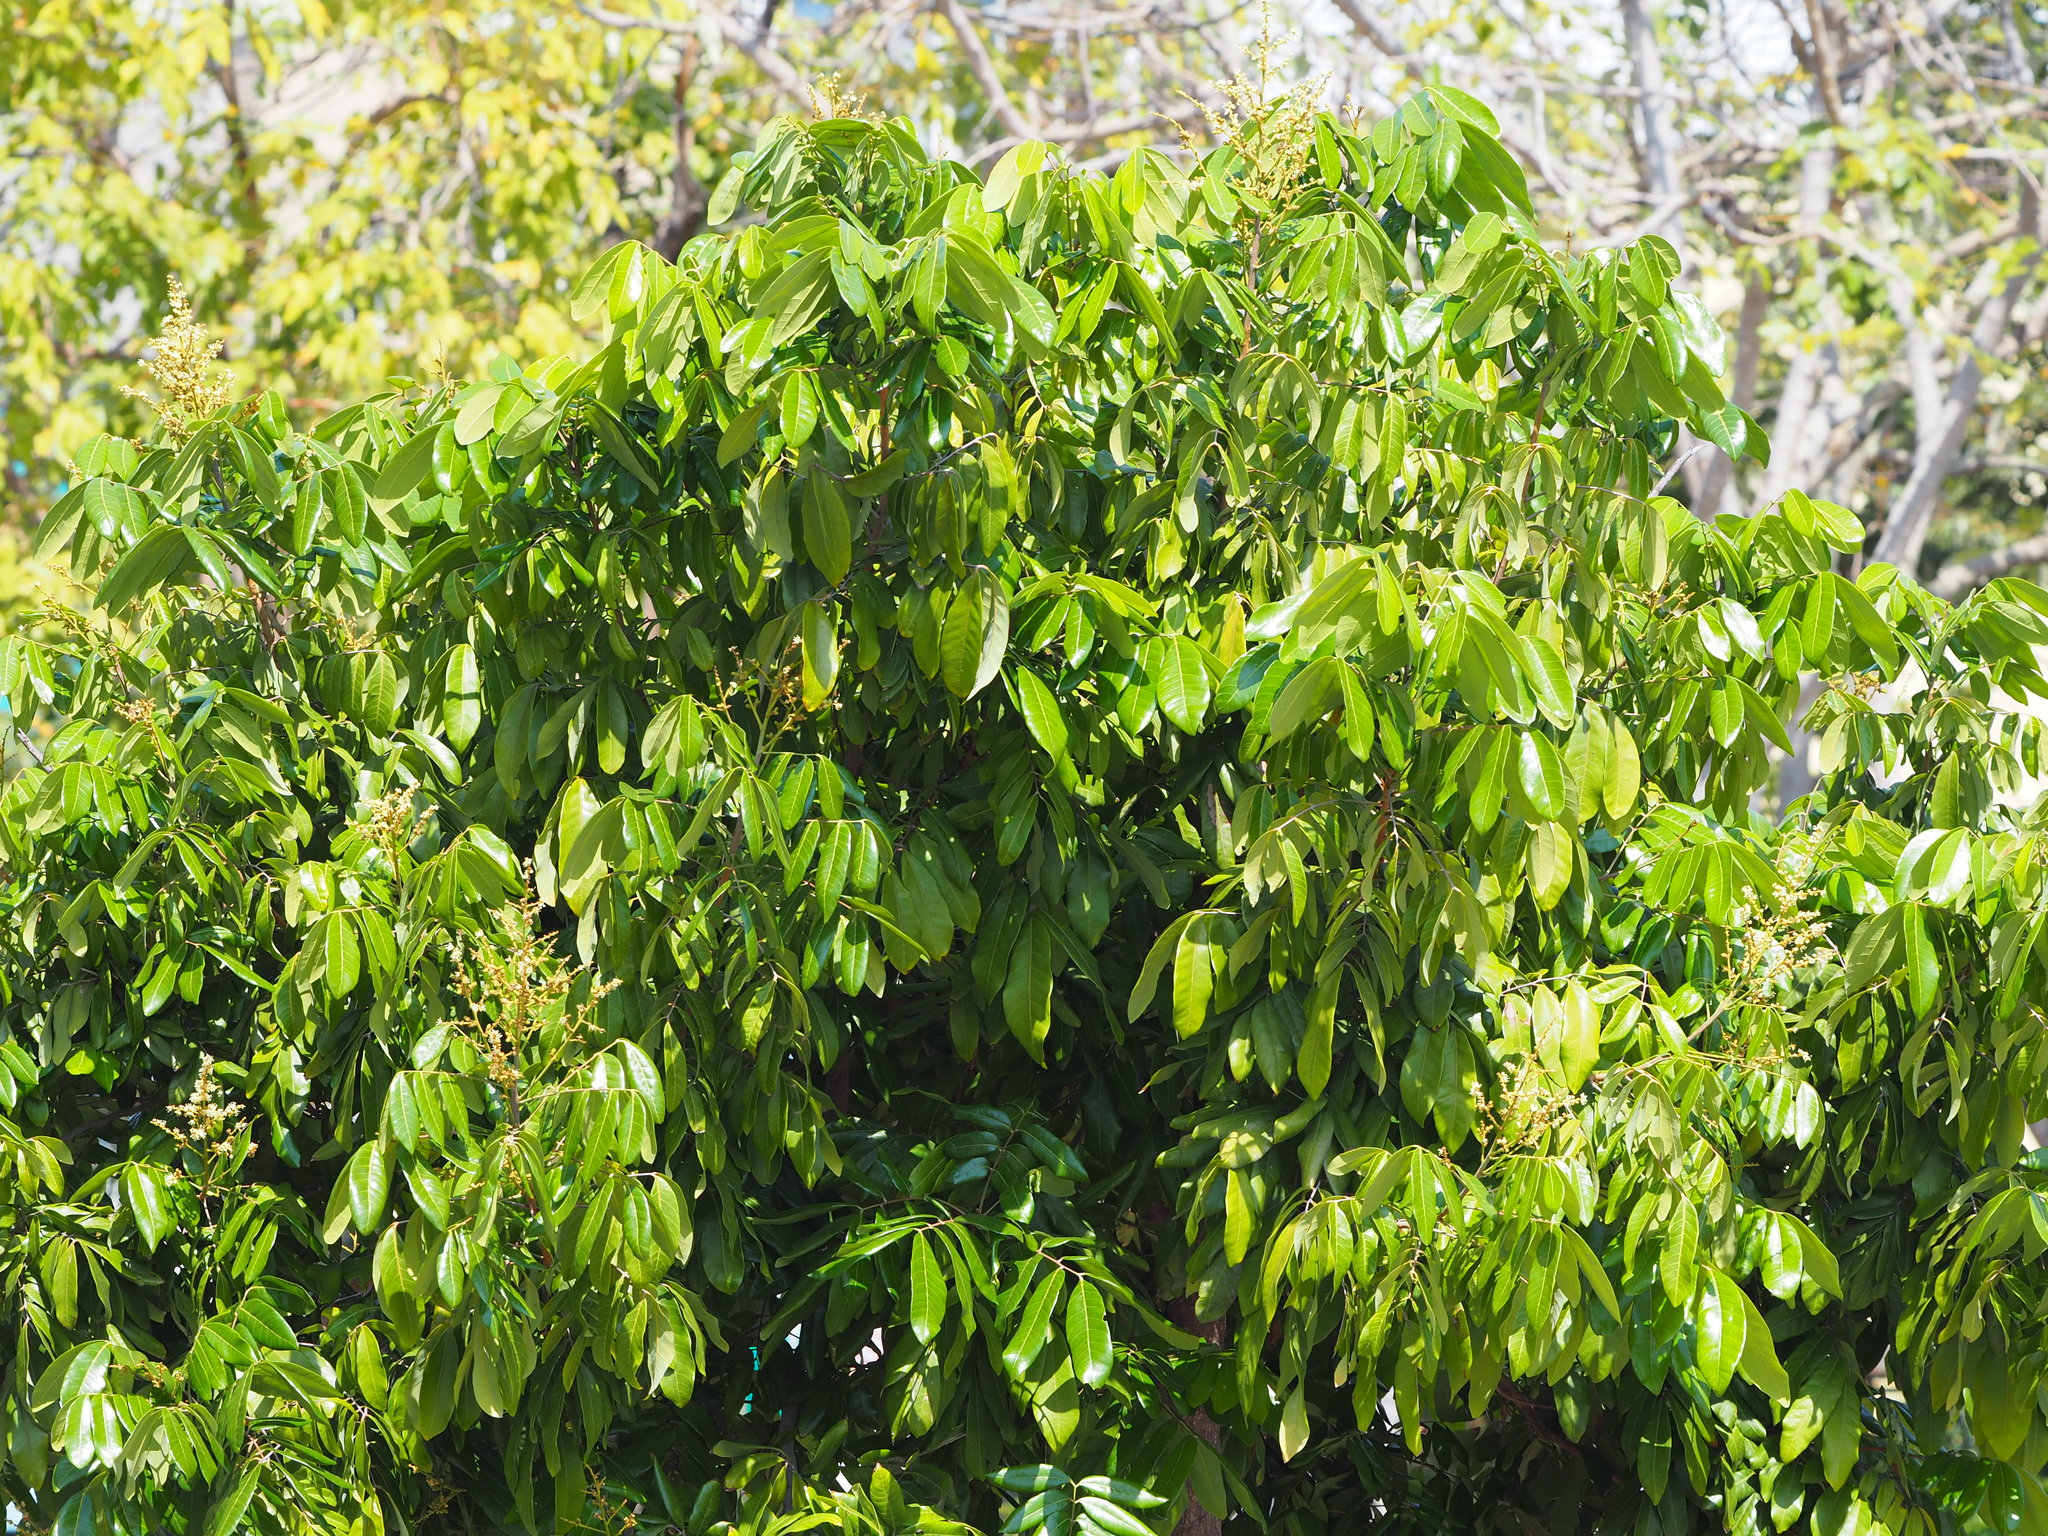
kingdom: Plantae
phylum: Tracheophyta
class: Magnoliopsida
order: Sapindales
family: Sapindaceae
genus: Dimocarpus
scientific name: Dimocarpus longan
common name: Longan
